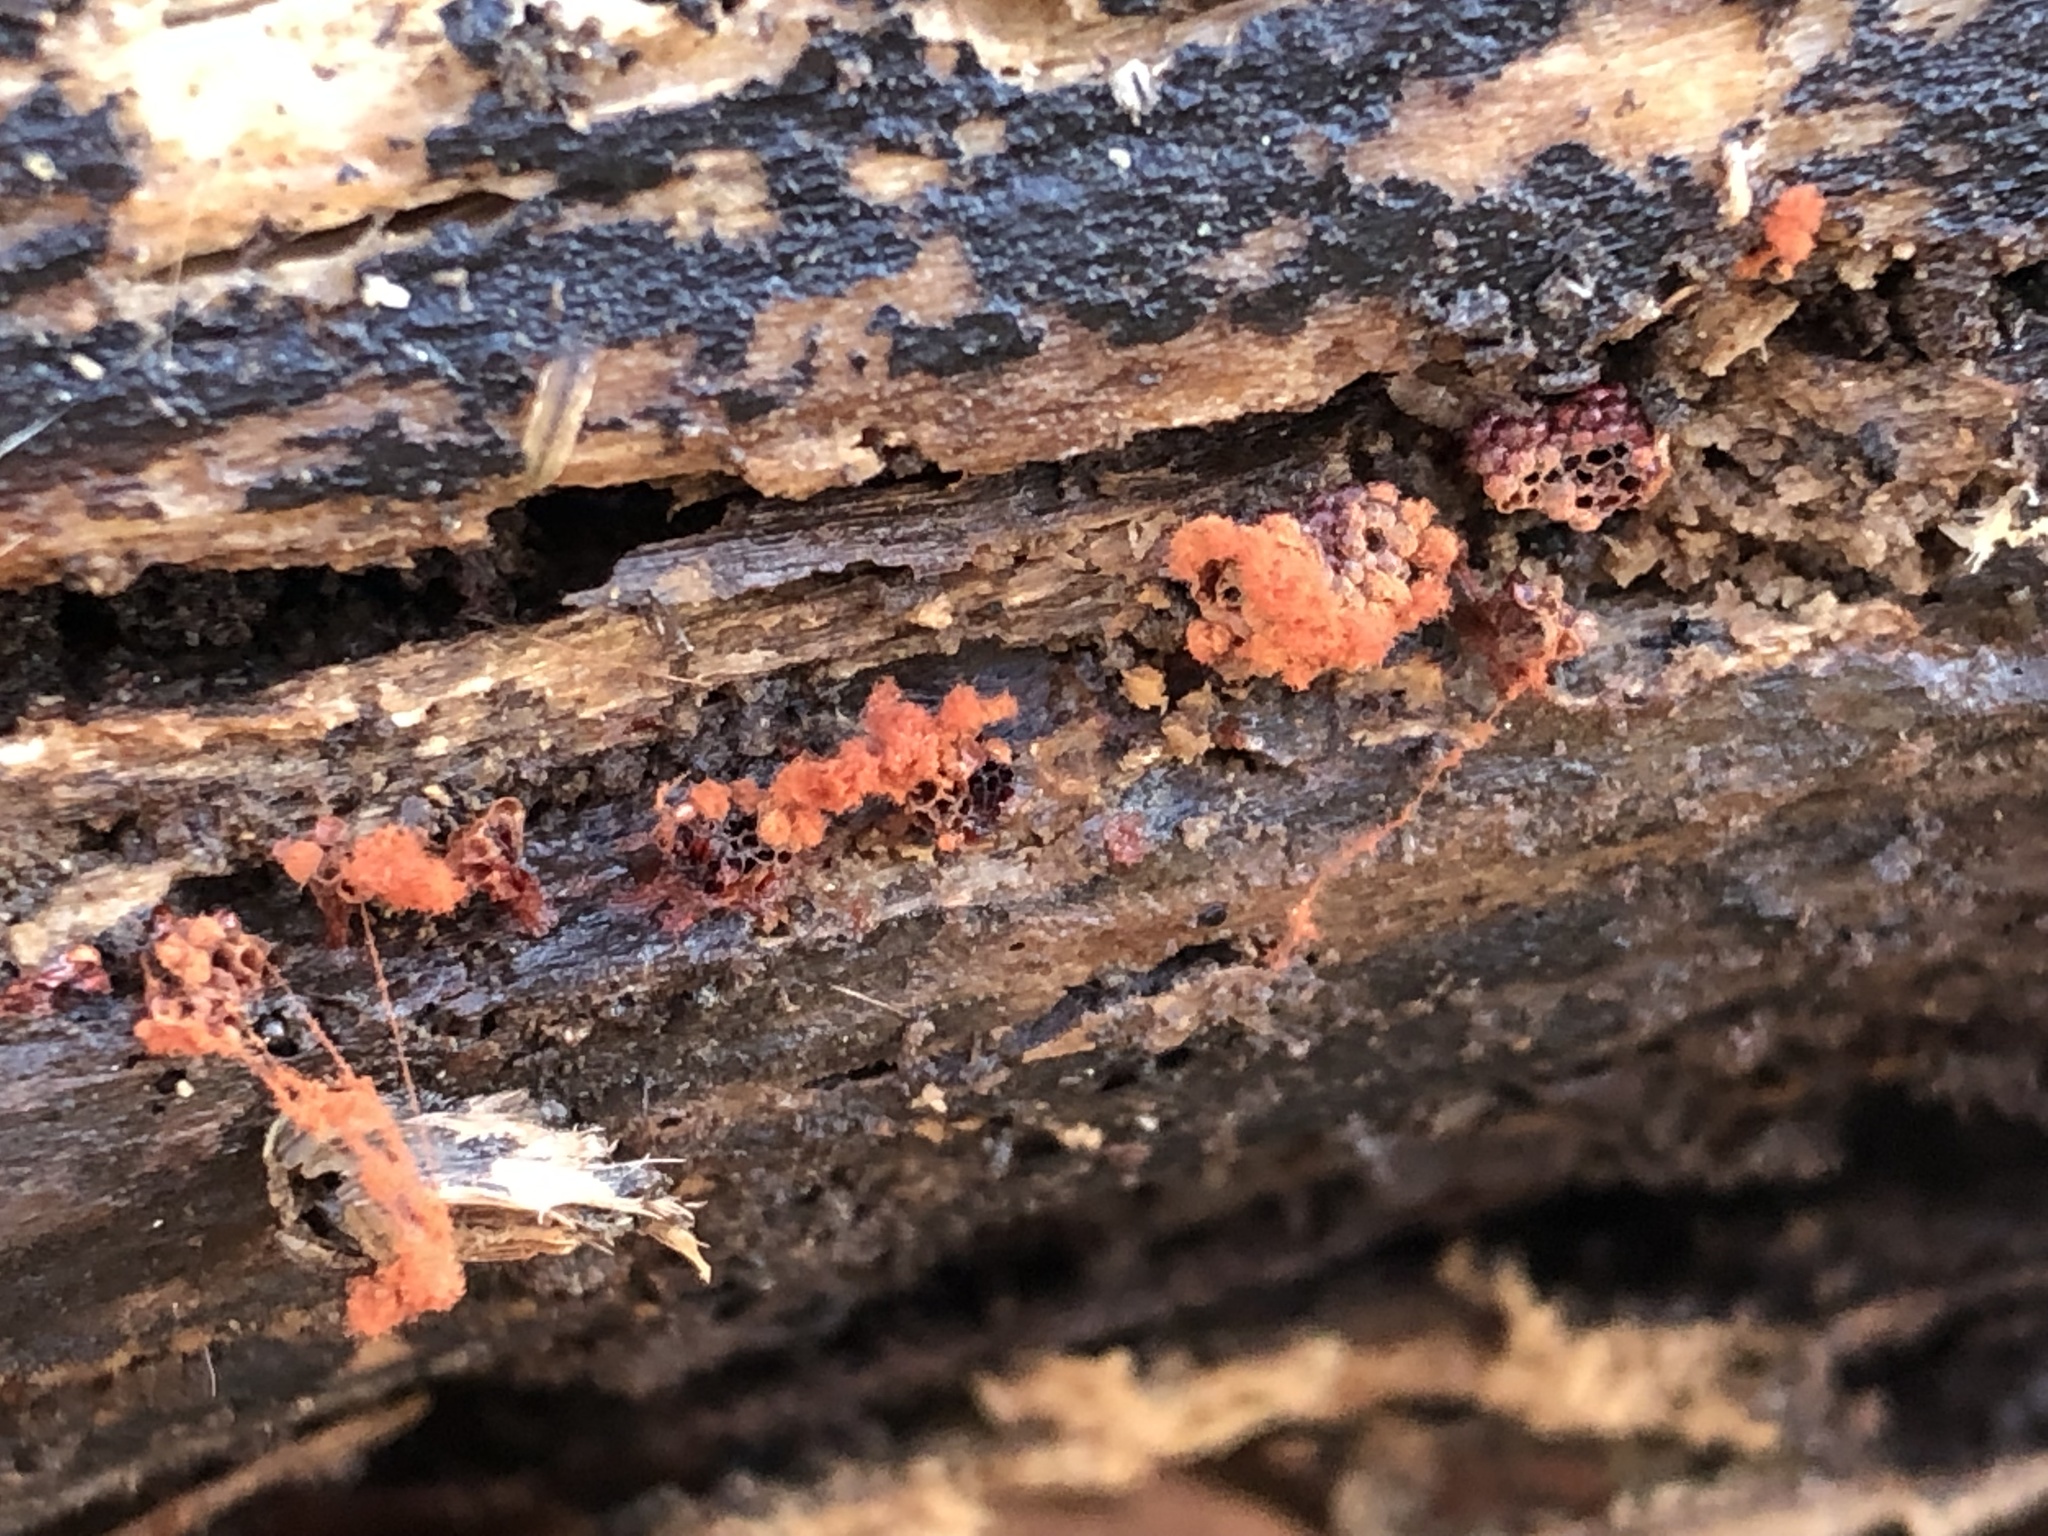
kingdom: Protozoa
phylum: Mycetozoa
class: Myxomycetes
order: Trichiales
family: Trichiaceae
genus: Metatrichia
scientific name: Metatrichia vesparia
